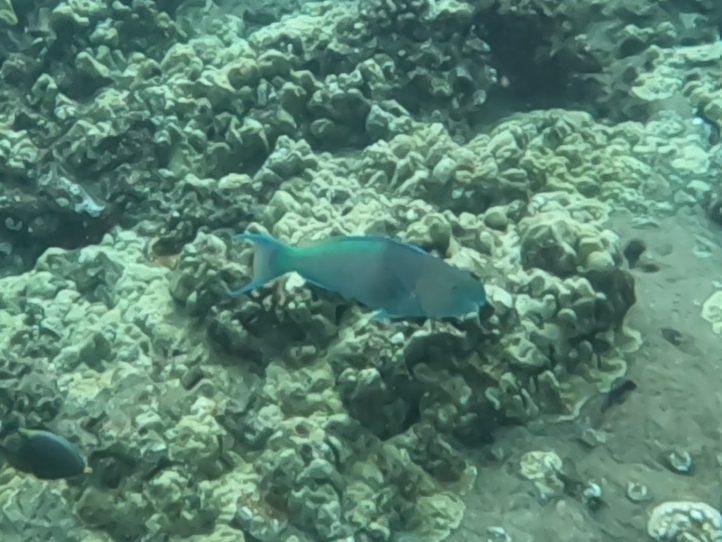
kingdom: Animalia
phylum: Chordata
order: Perciformes
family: Scaridae
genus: Scarus
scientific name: Scarus rubroviolaceus
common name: Ember parrotfish
